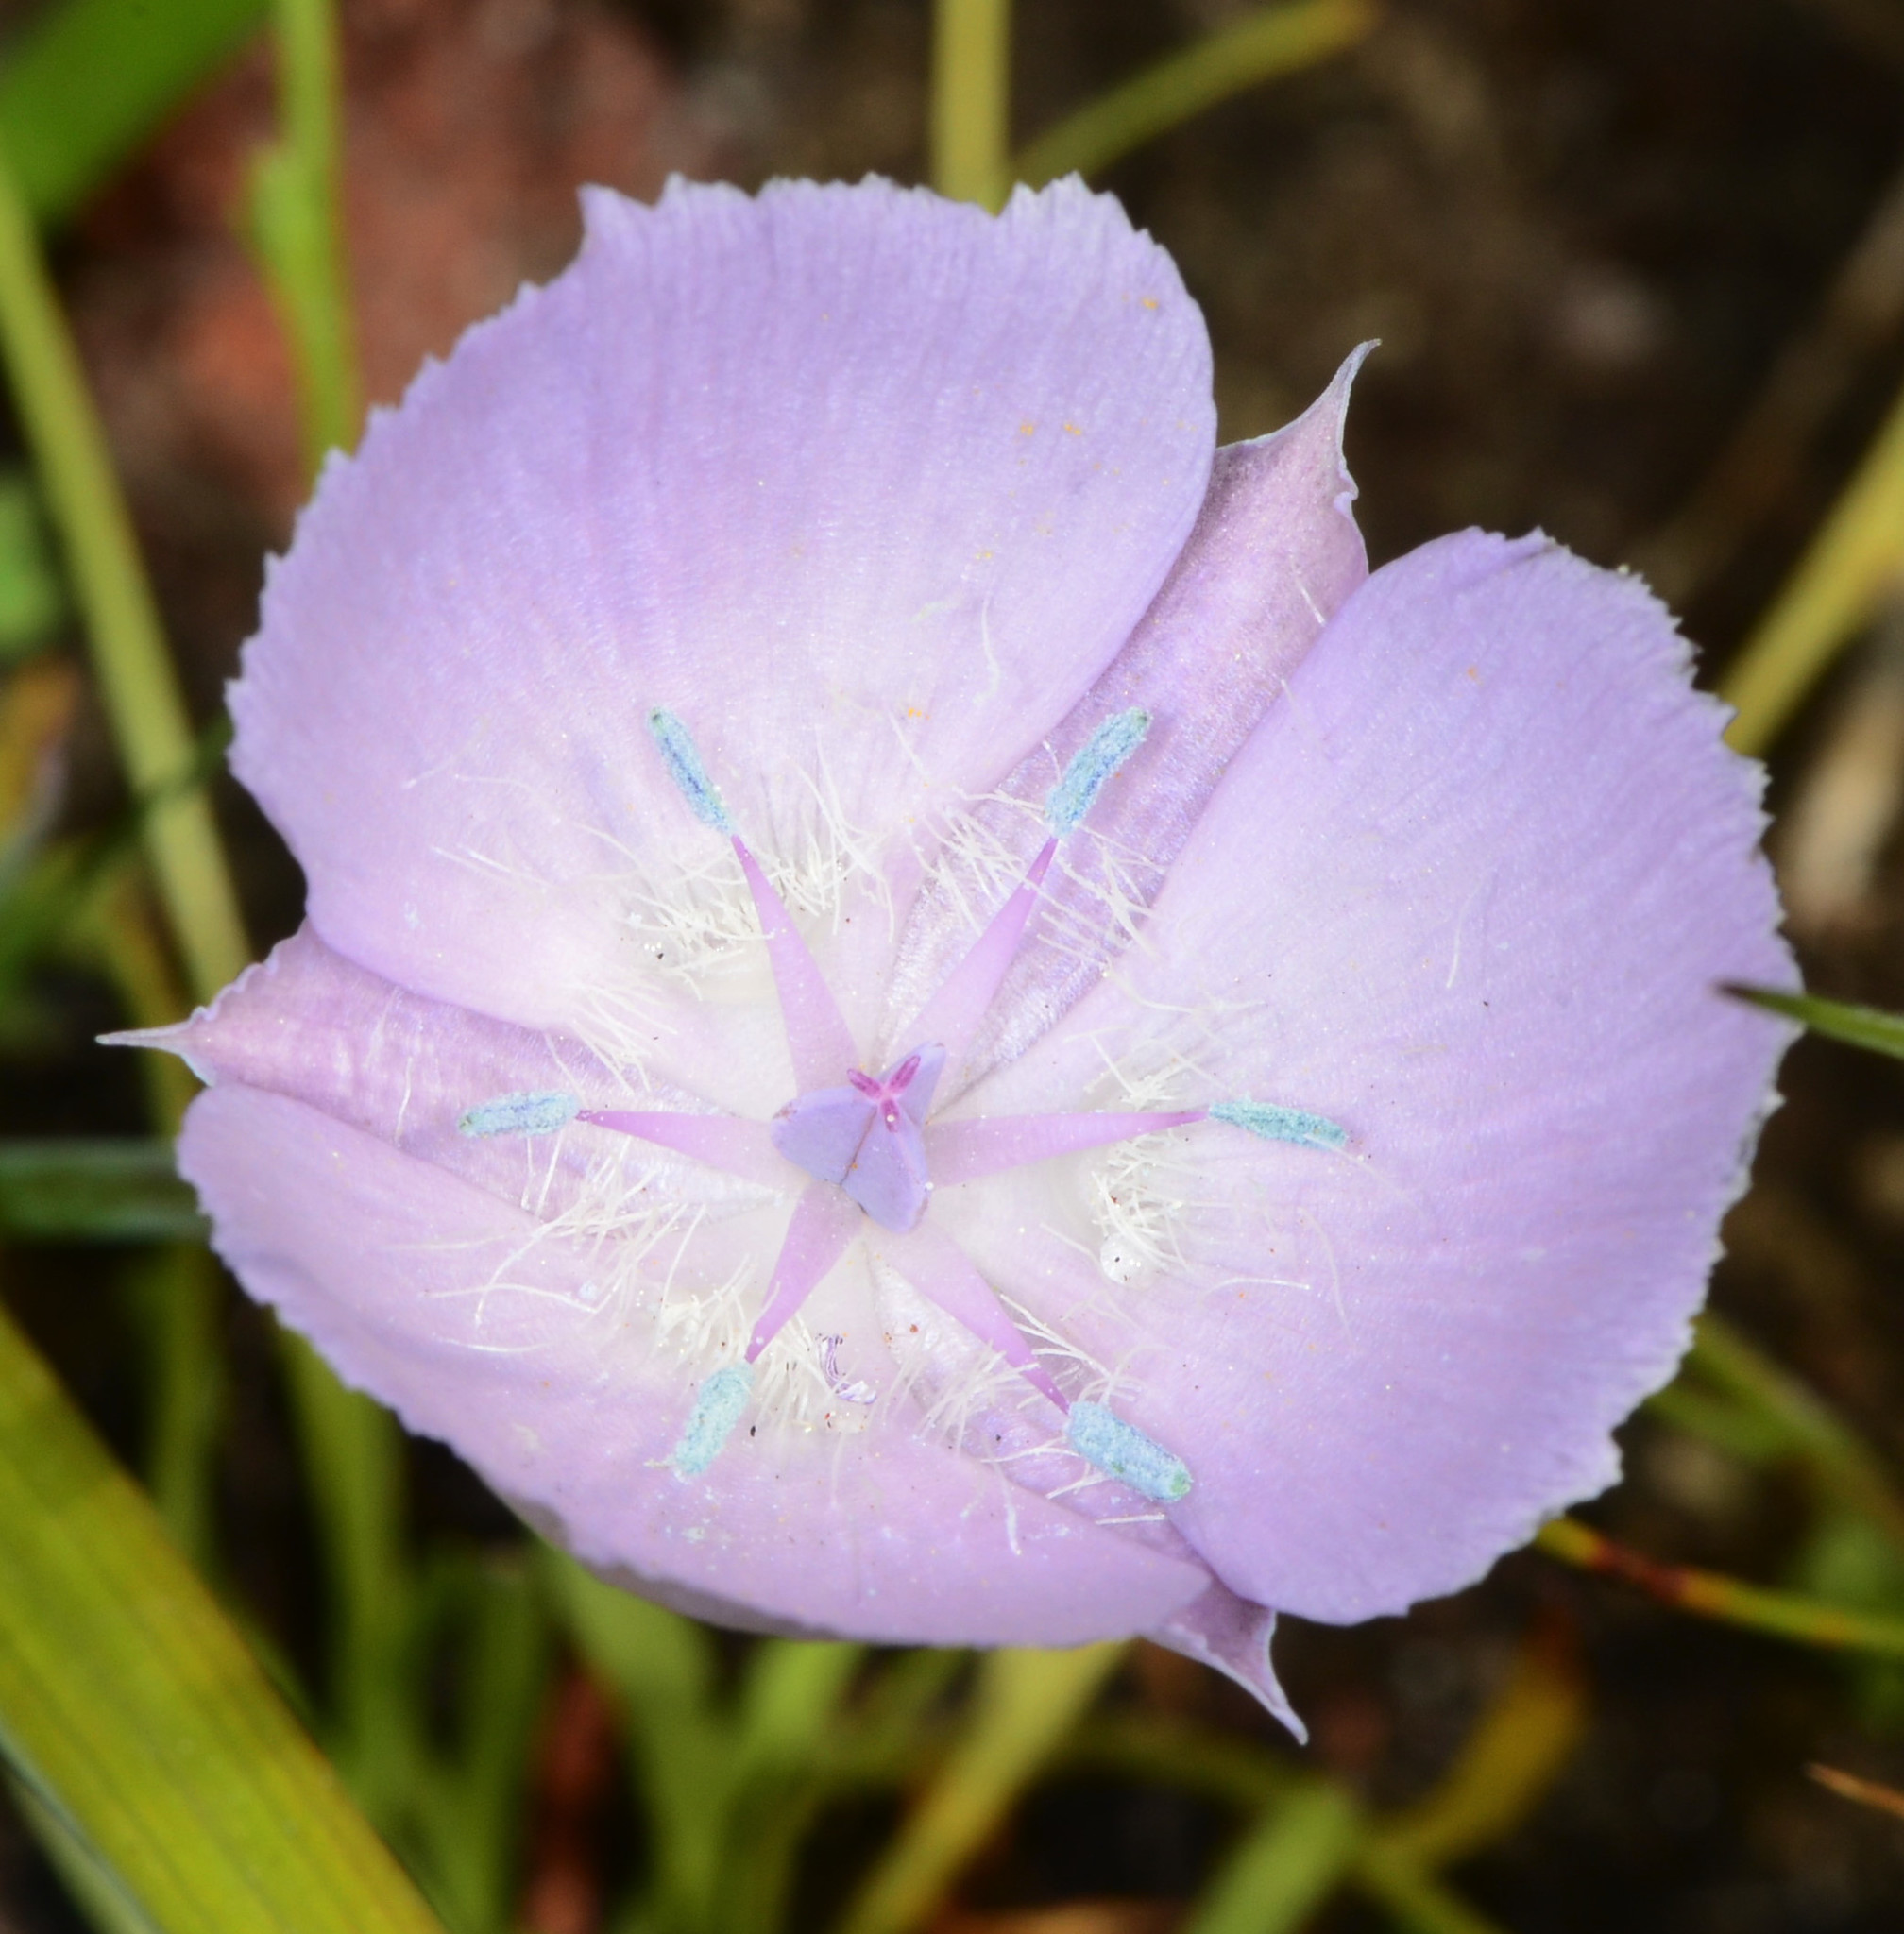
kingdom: Plantae
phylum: Tracheophyta
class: Liliopsida
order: Liliales
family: Liliaceae
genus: Calochortus
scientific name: Calochortus uniflorus
